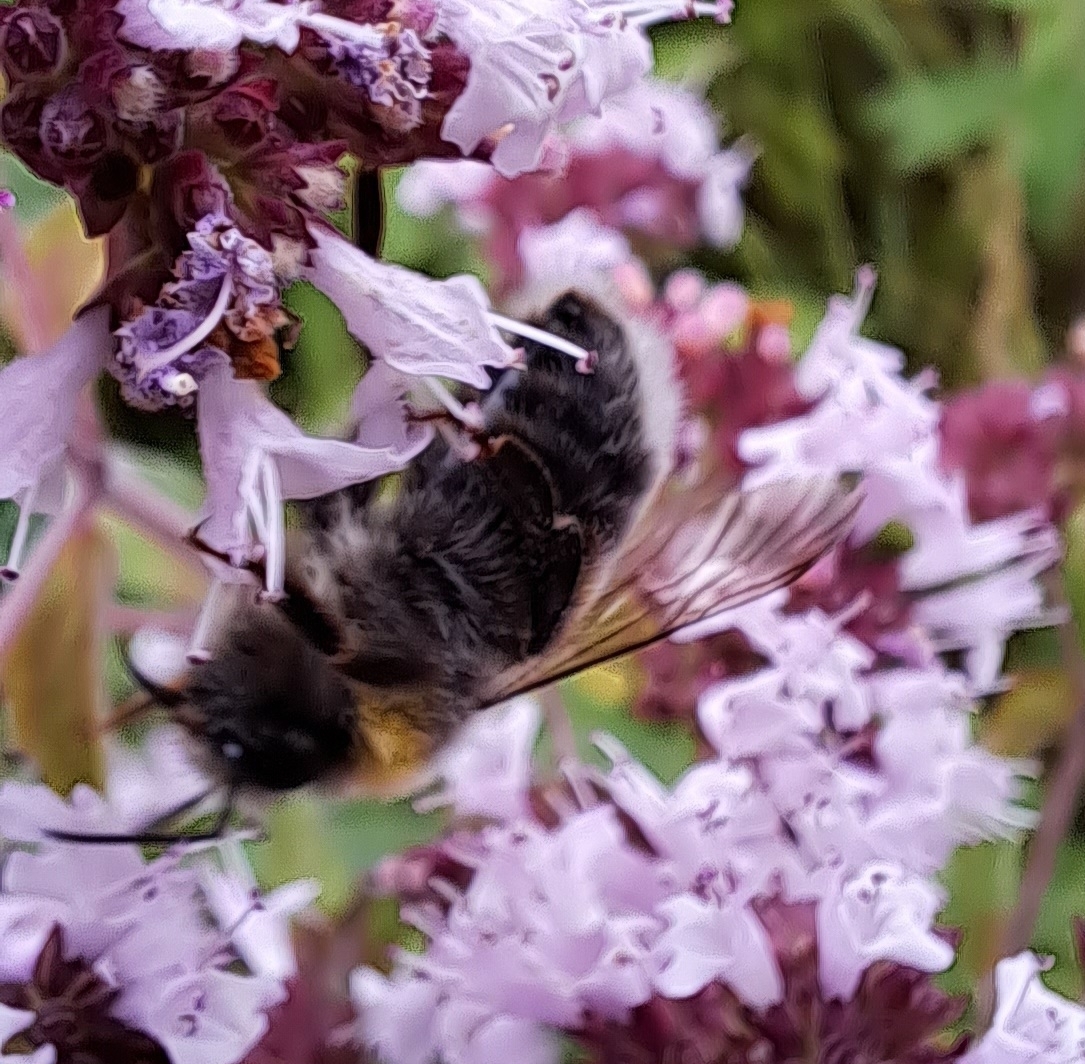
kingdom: Animalia
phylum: Arthropoda
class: Insecta
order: Hymenoptera
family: Apidae
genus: Bombus
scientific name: Bombus lucorum
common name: White-tailed bumblebee
